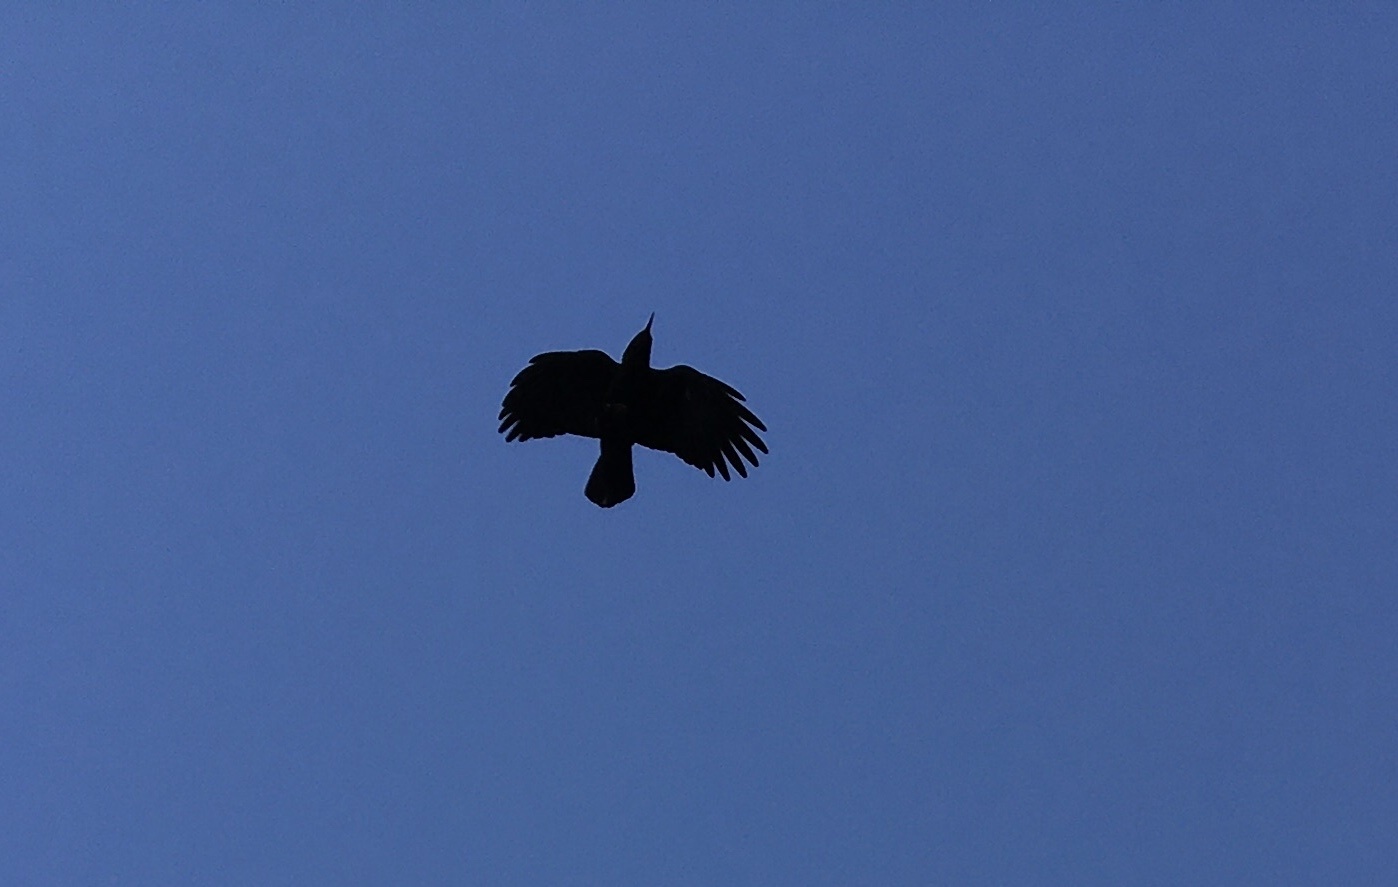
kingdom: Animalia
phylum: Chordata
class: Aves
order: Passeriformes
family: Corvidae
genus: Pyrrhocorax
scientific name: Pyrrhocorax pyrrhocorax
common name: Red-billed chough
